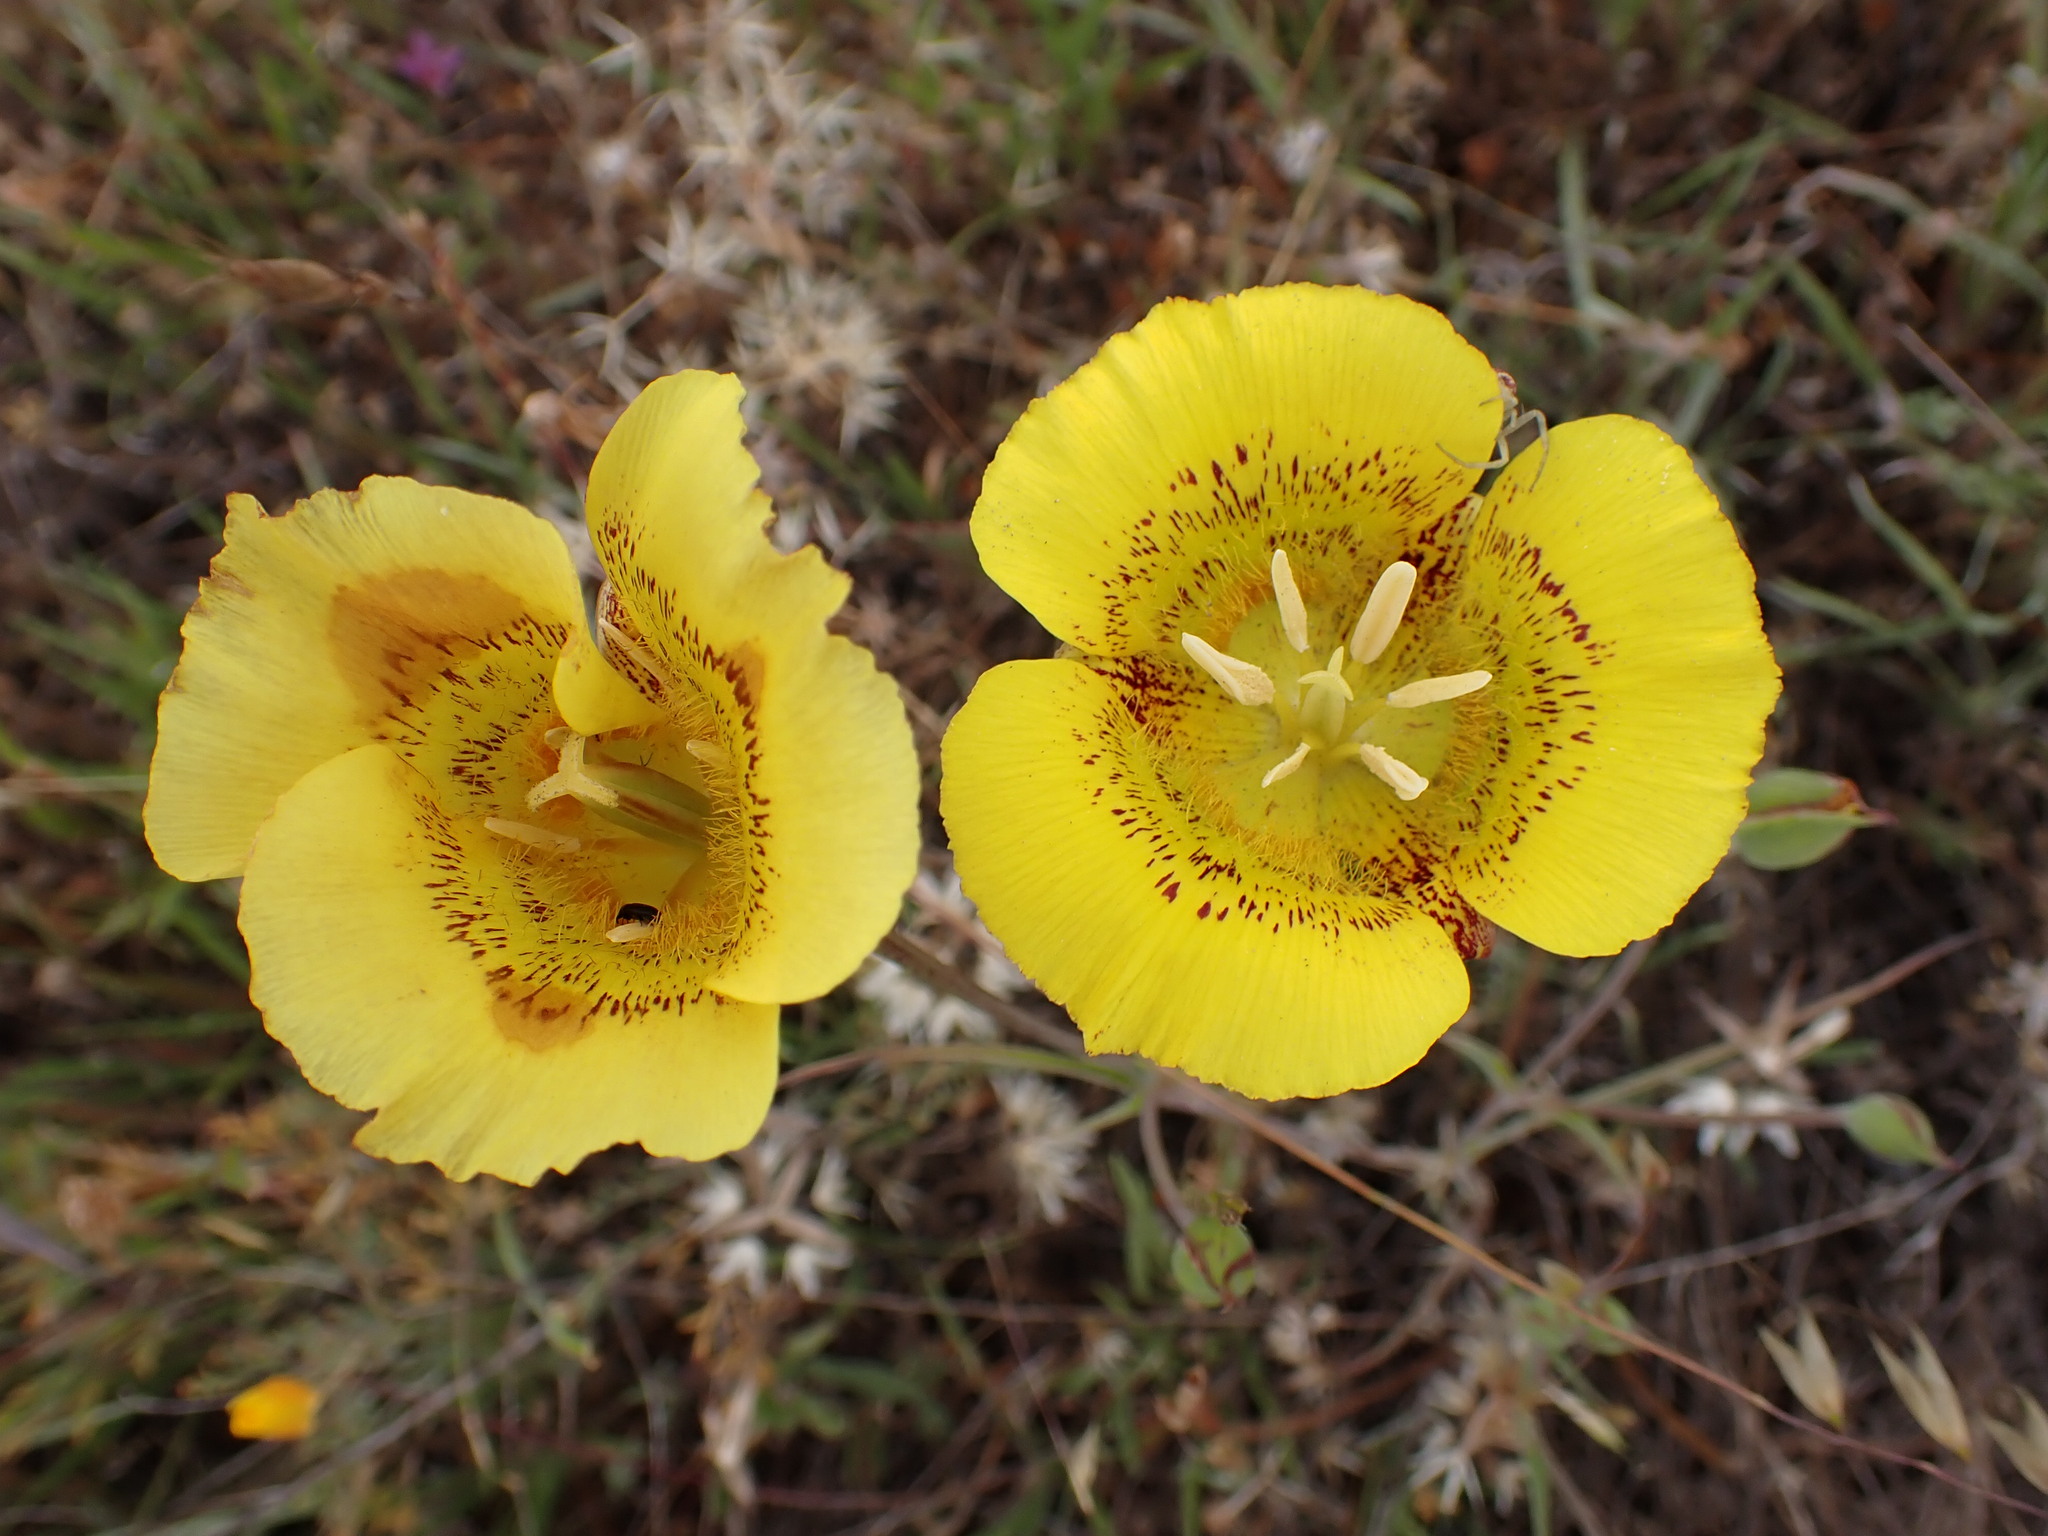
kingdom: Plantae
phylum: Tracheophyta
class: Liliopsida
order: Liliales
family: Liliaceae
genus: Calochortus
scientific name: Calochortus luteus
